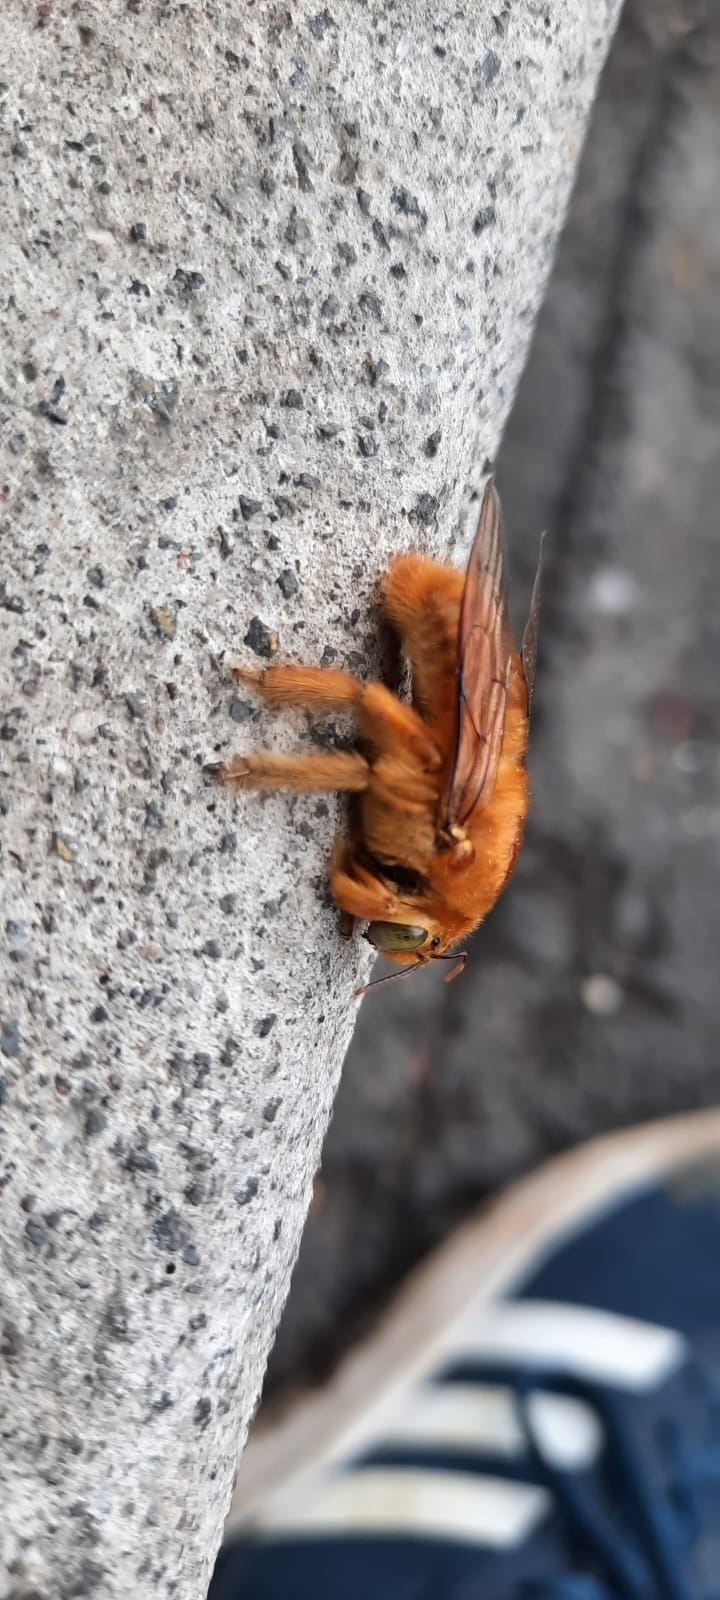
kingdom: Animalia
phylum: Arthropoda
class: Insecta
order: Hymenoptera
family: Apidae
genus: Xylocopa
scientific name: Xylocopa sonorina
